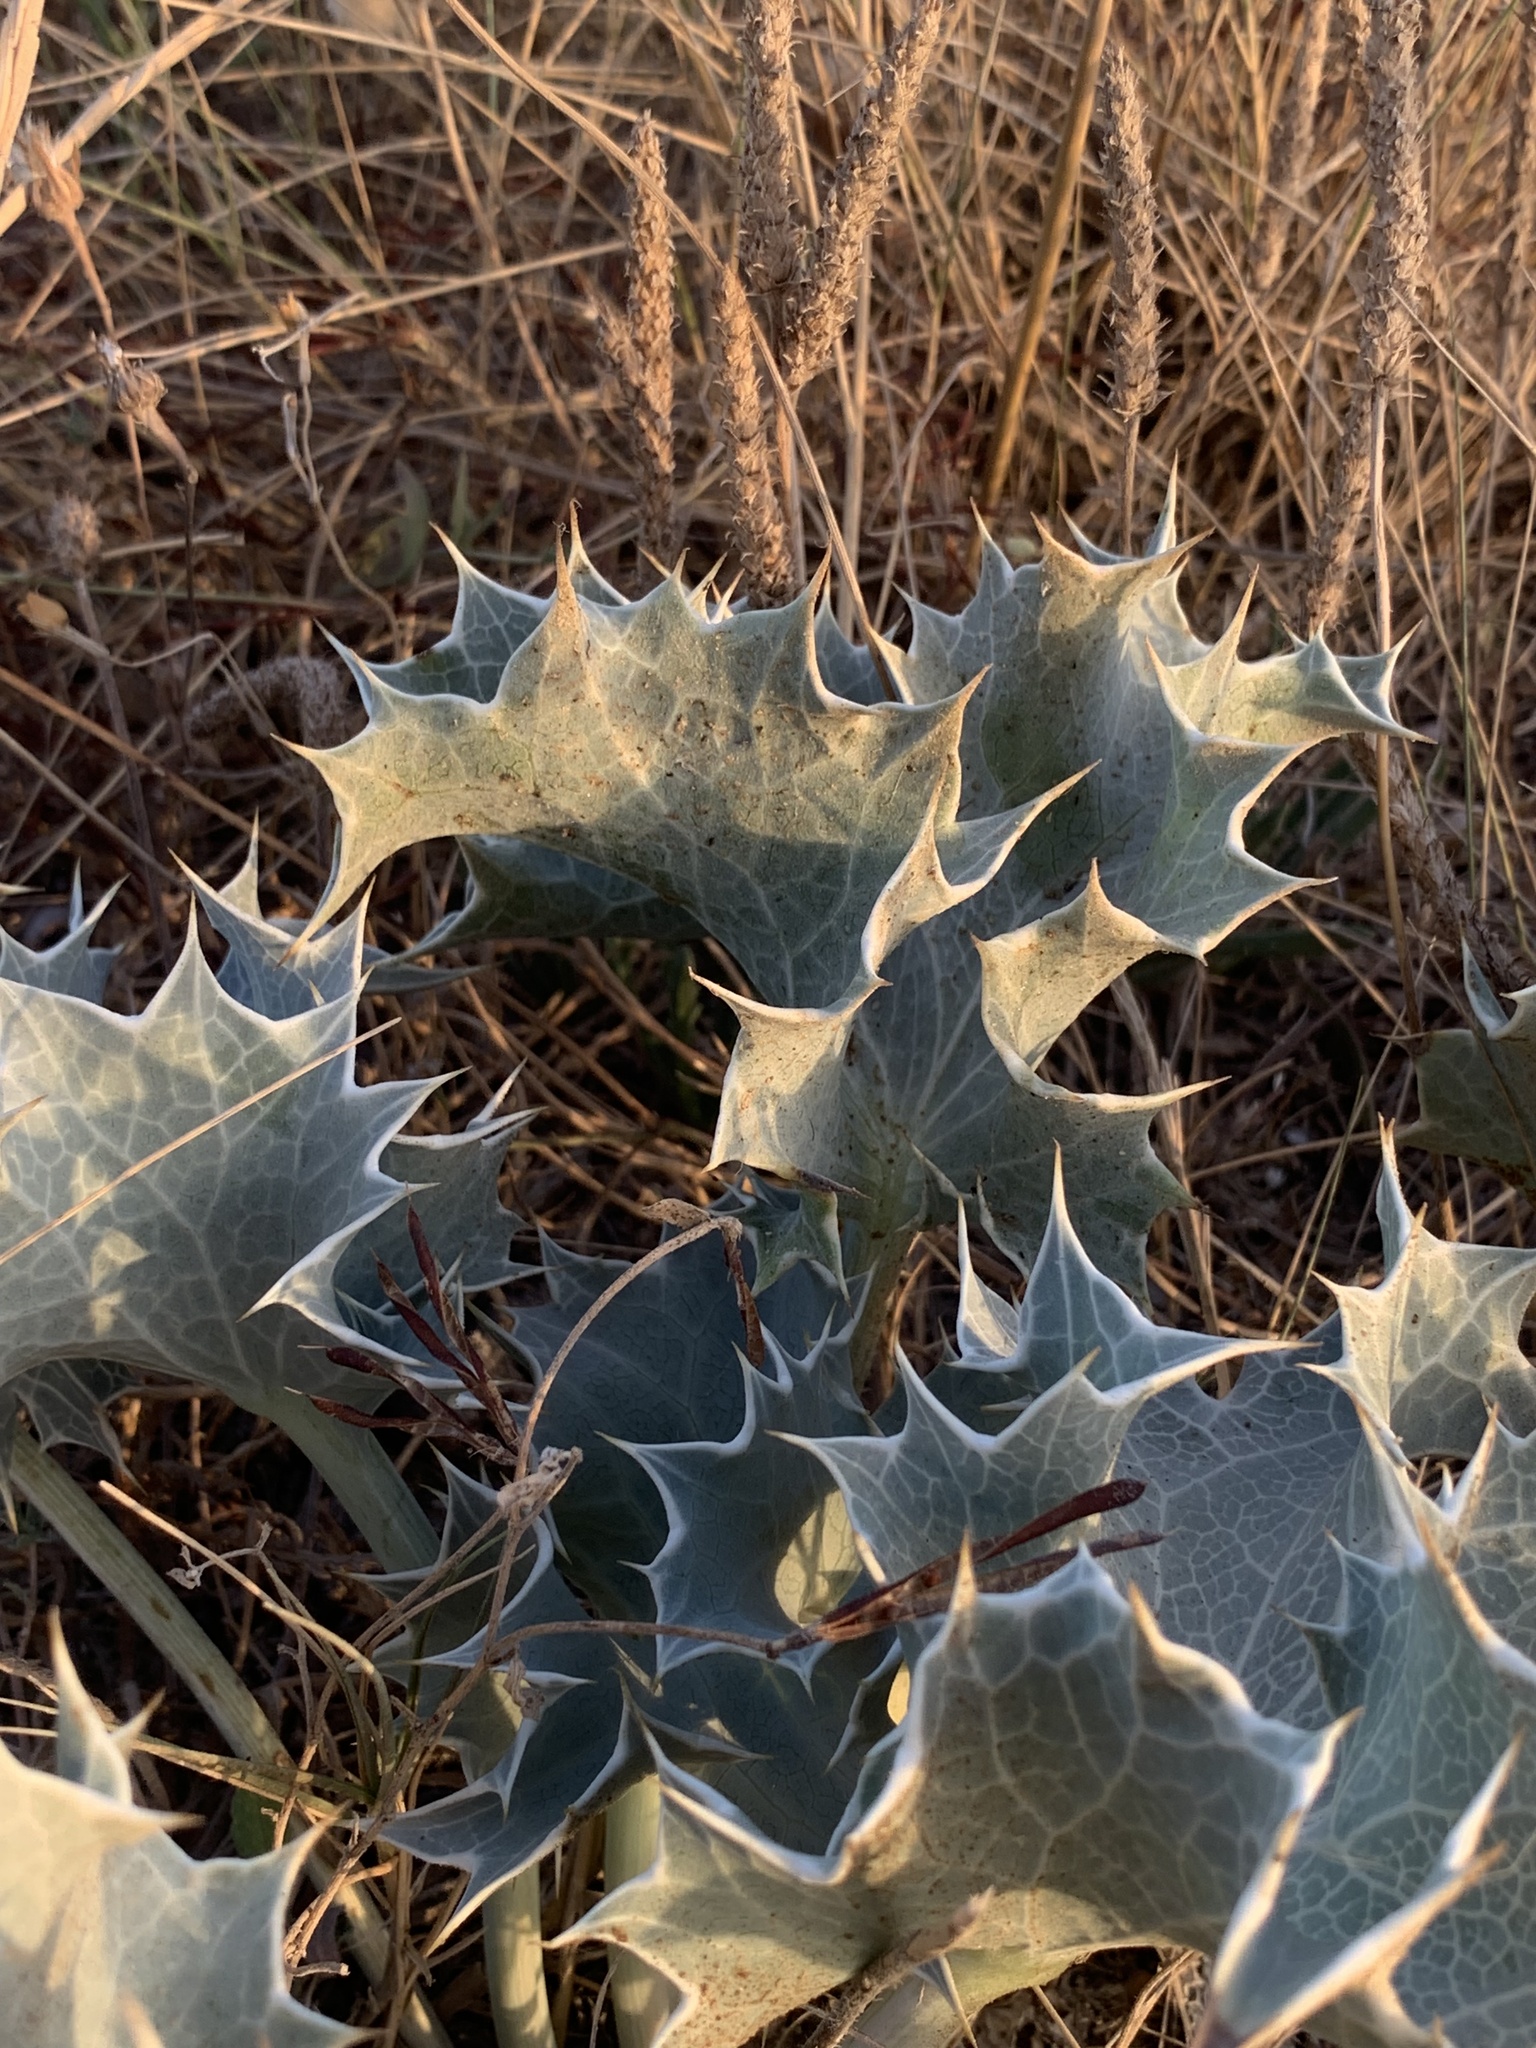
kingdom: Plantae
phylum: Tracheophyta
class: Magnoliopsida
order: Apiales
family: Apiaceae
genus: Eryngium
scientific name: Eryngium maritimum
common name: Sea-holly
